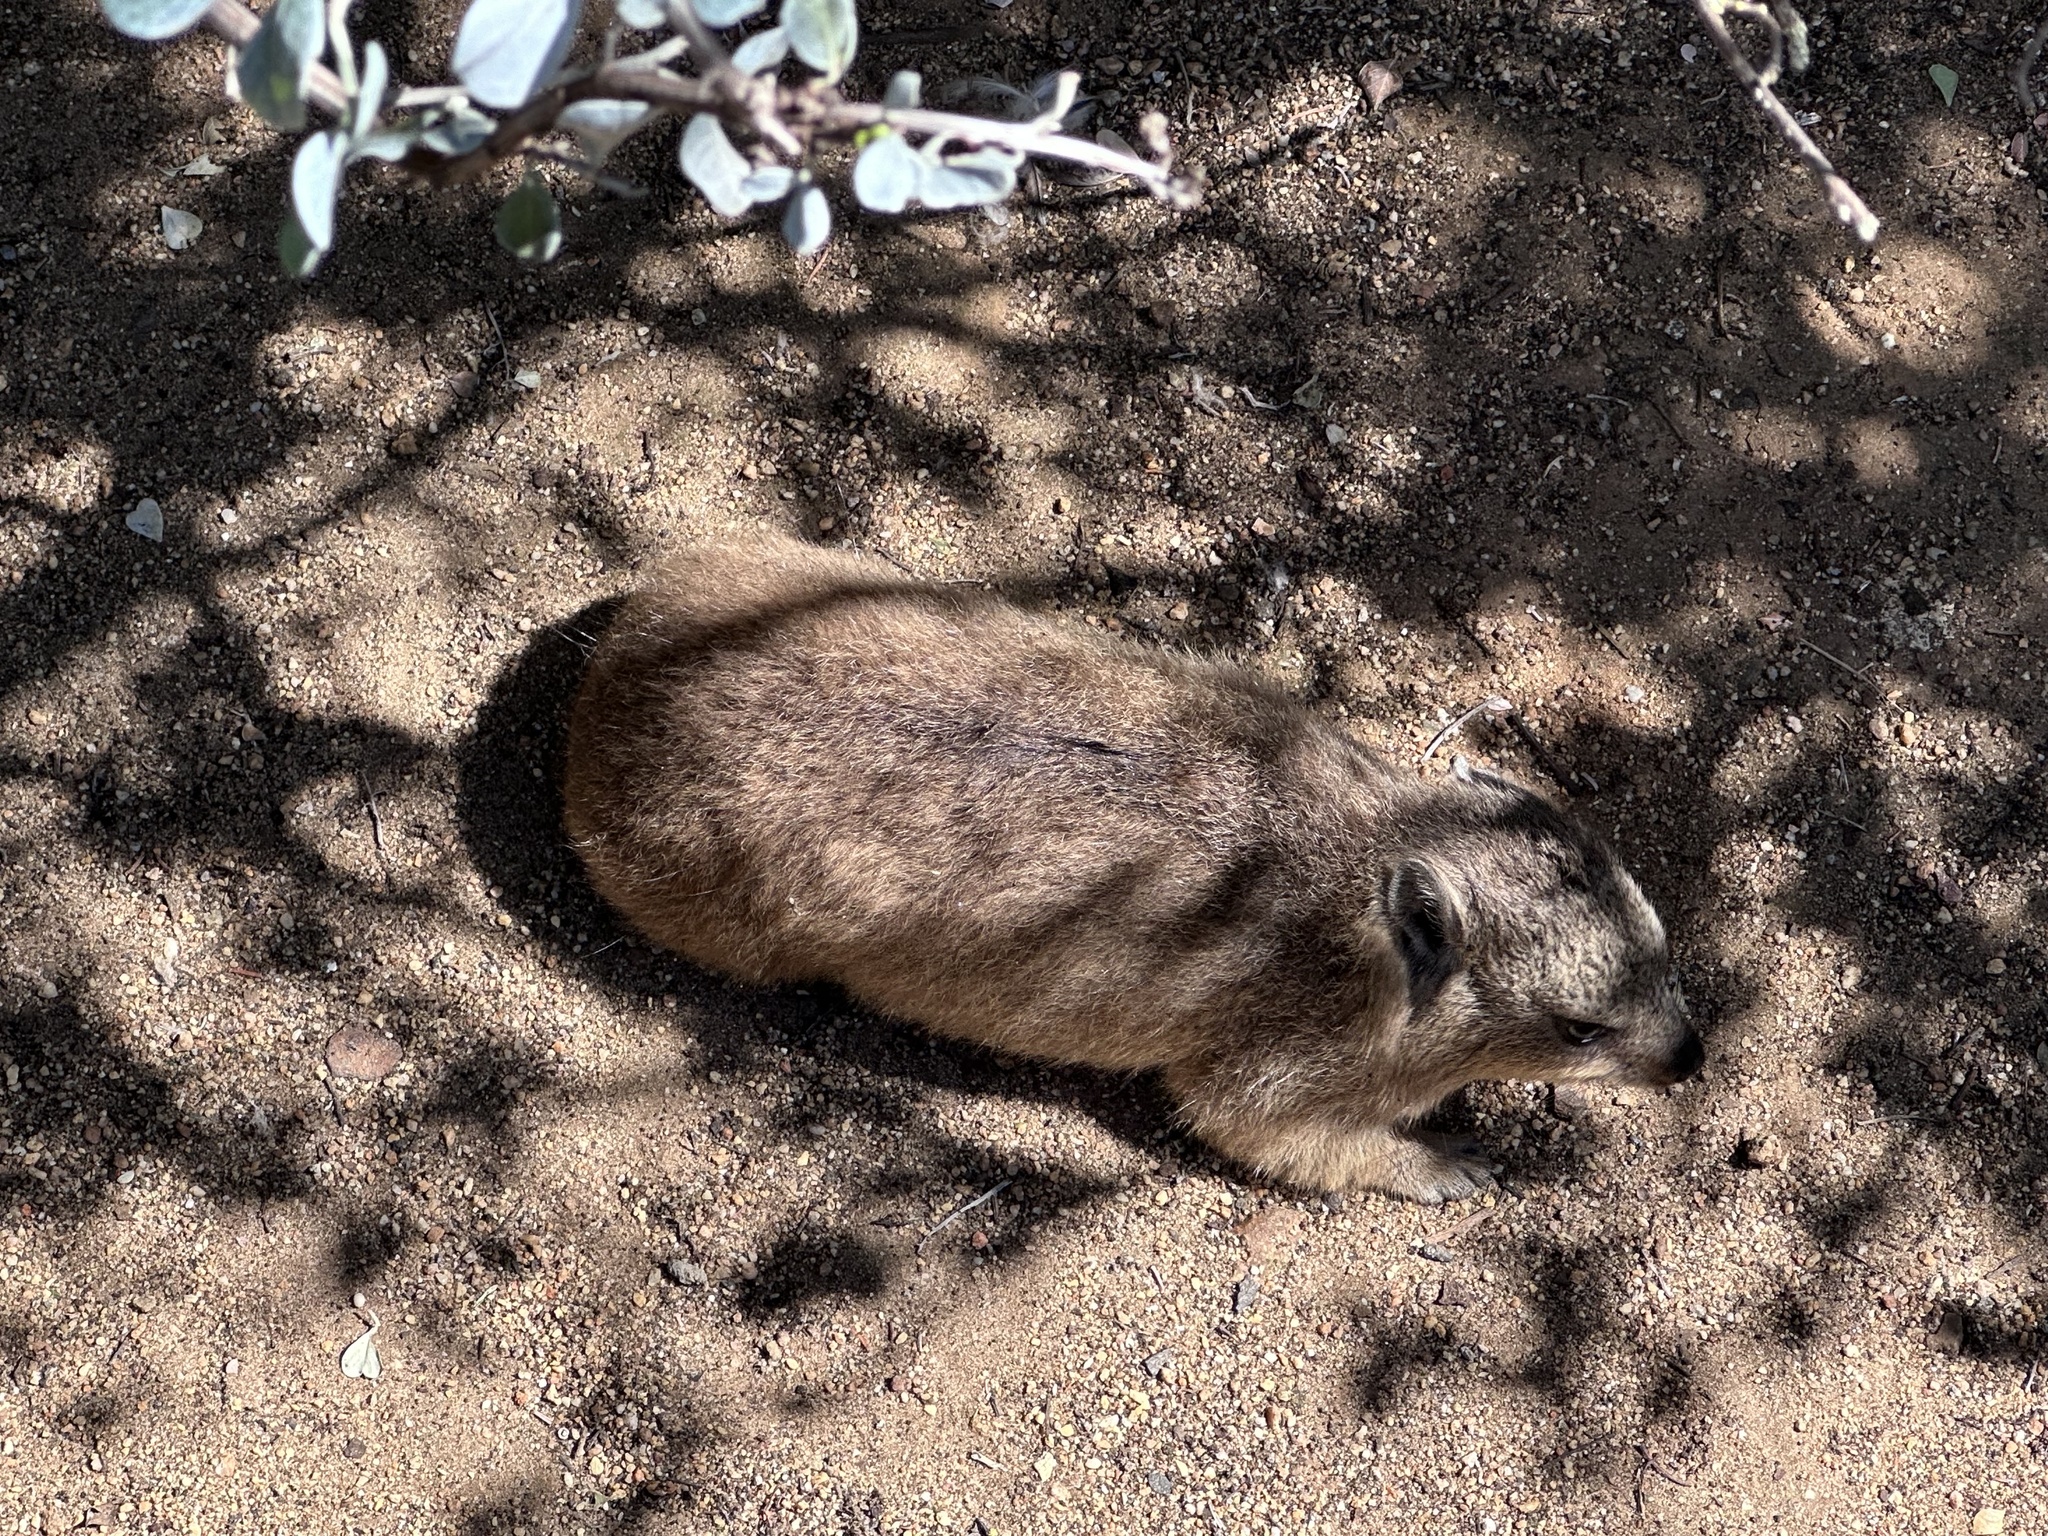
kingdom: Animalia
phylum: Chordata
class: Mammalia
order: Hyracoidea
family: Procaviidae
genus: Procavia
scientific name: Procavia capensis
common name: Rock hyrax
